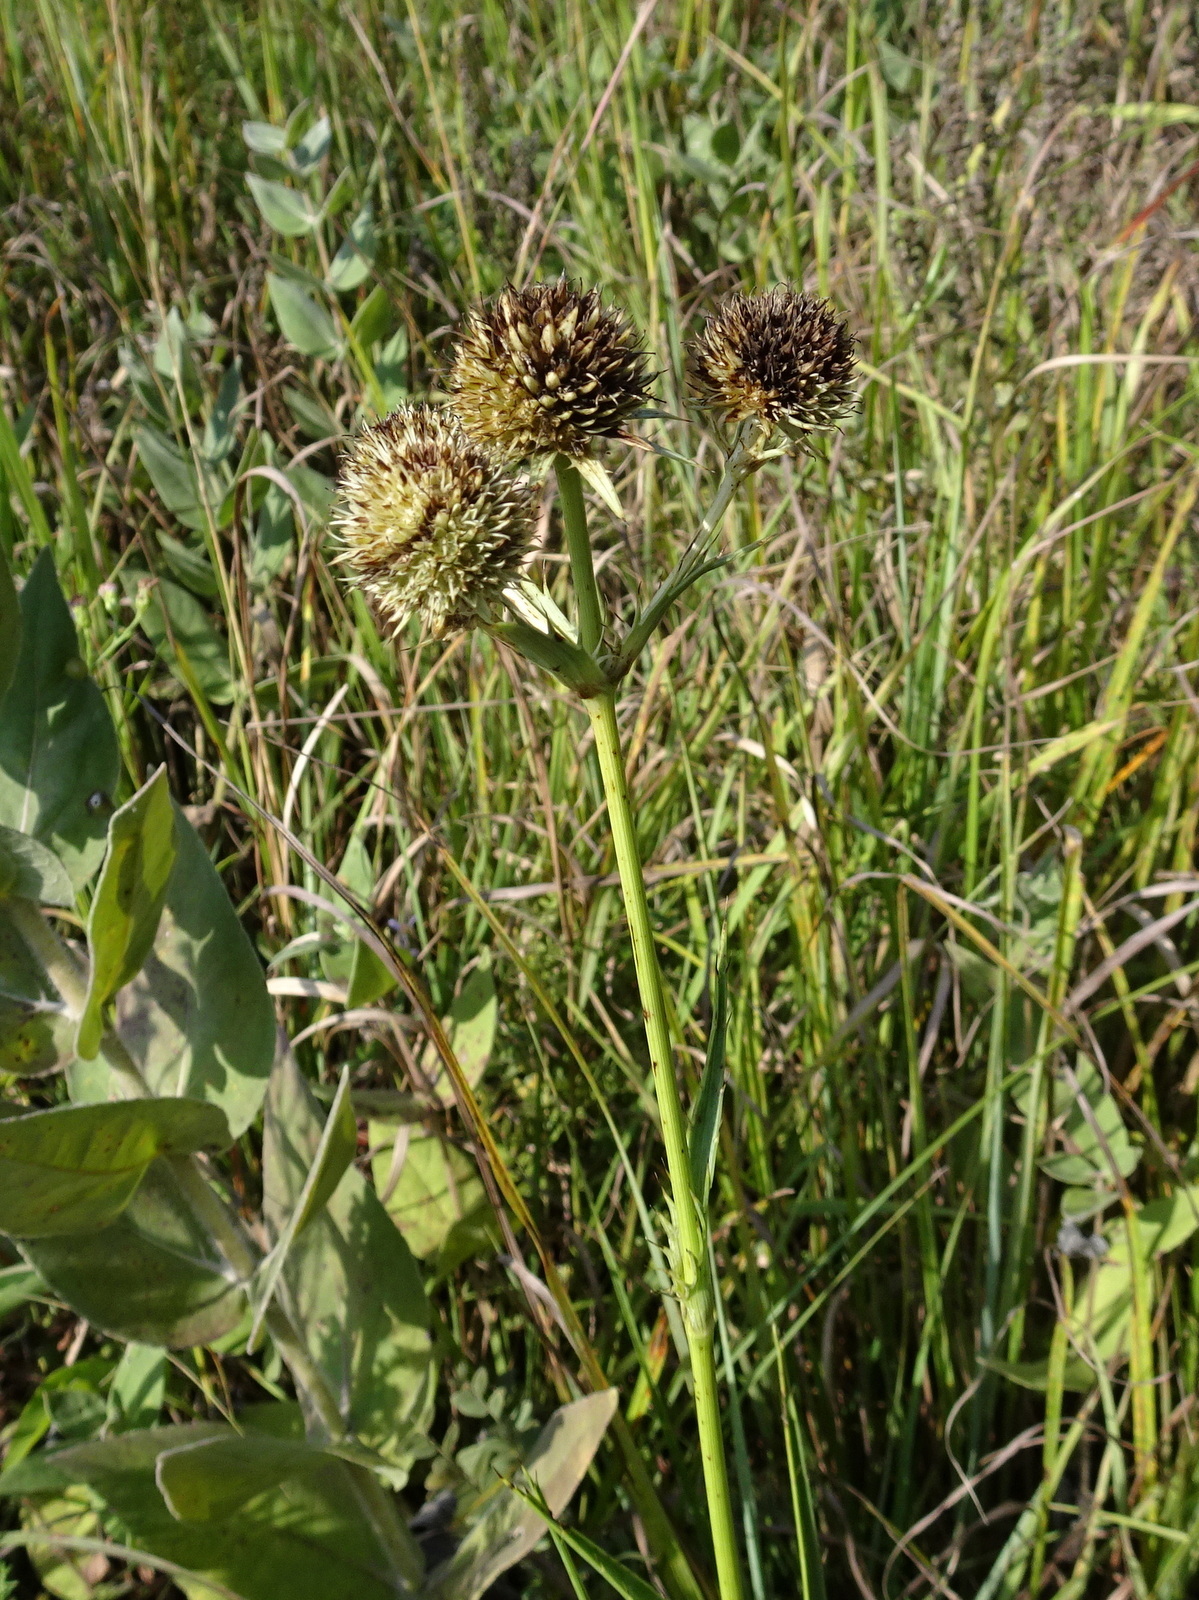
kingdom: Plantae
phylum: Tracheophyta
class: Magnoliopsida
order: Apiales
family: Apiaceae
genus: Eryngium
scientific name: Eryngium yuccifolium
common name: Button eryngo
